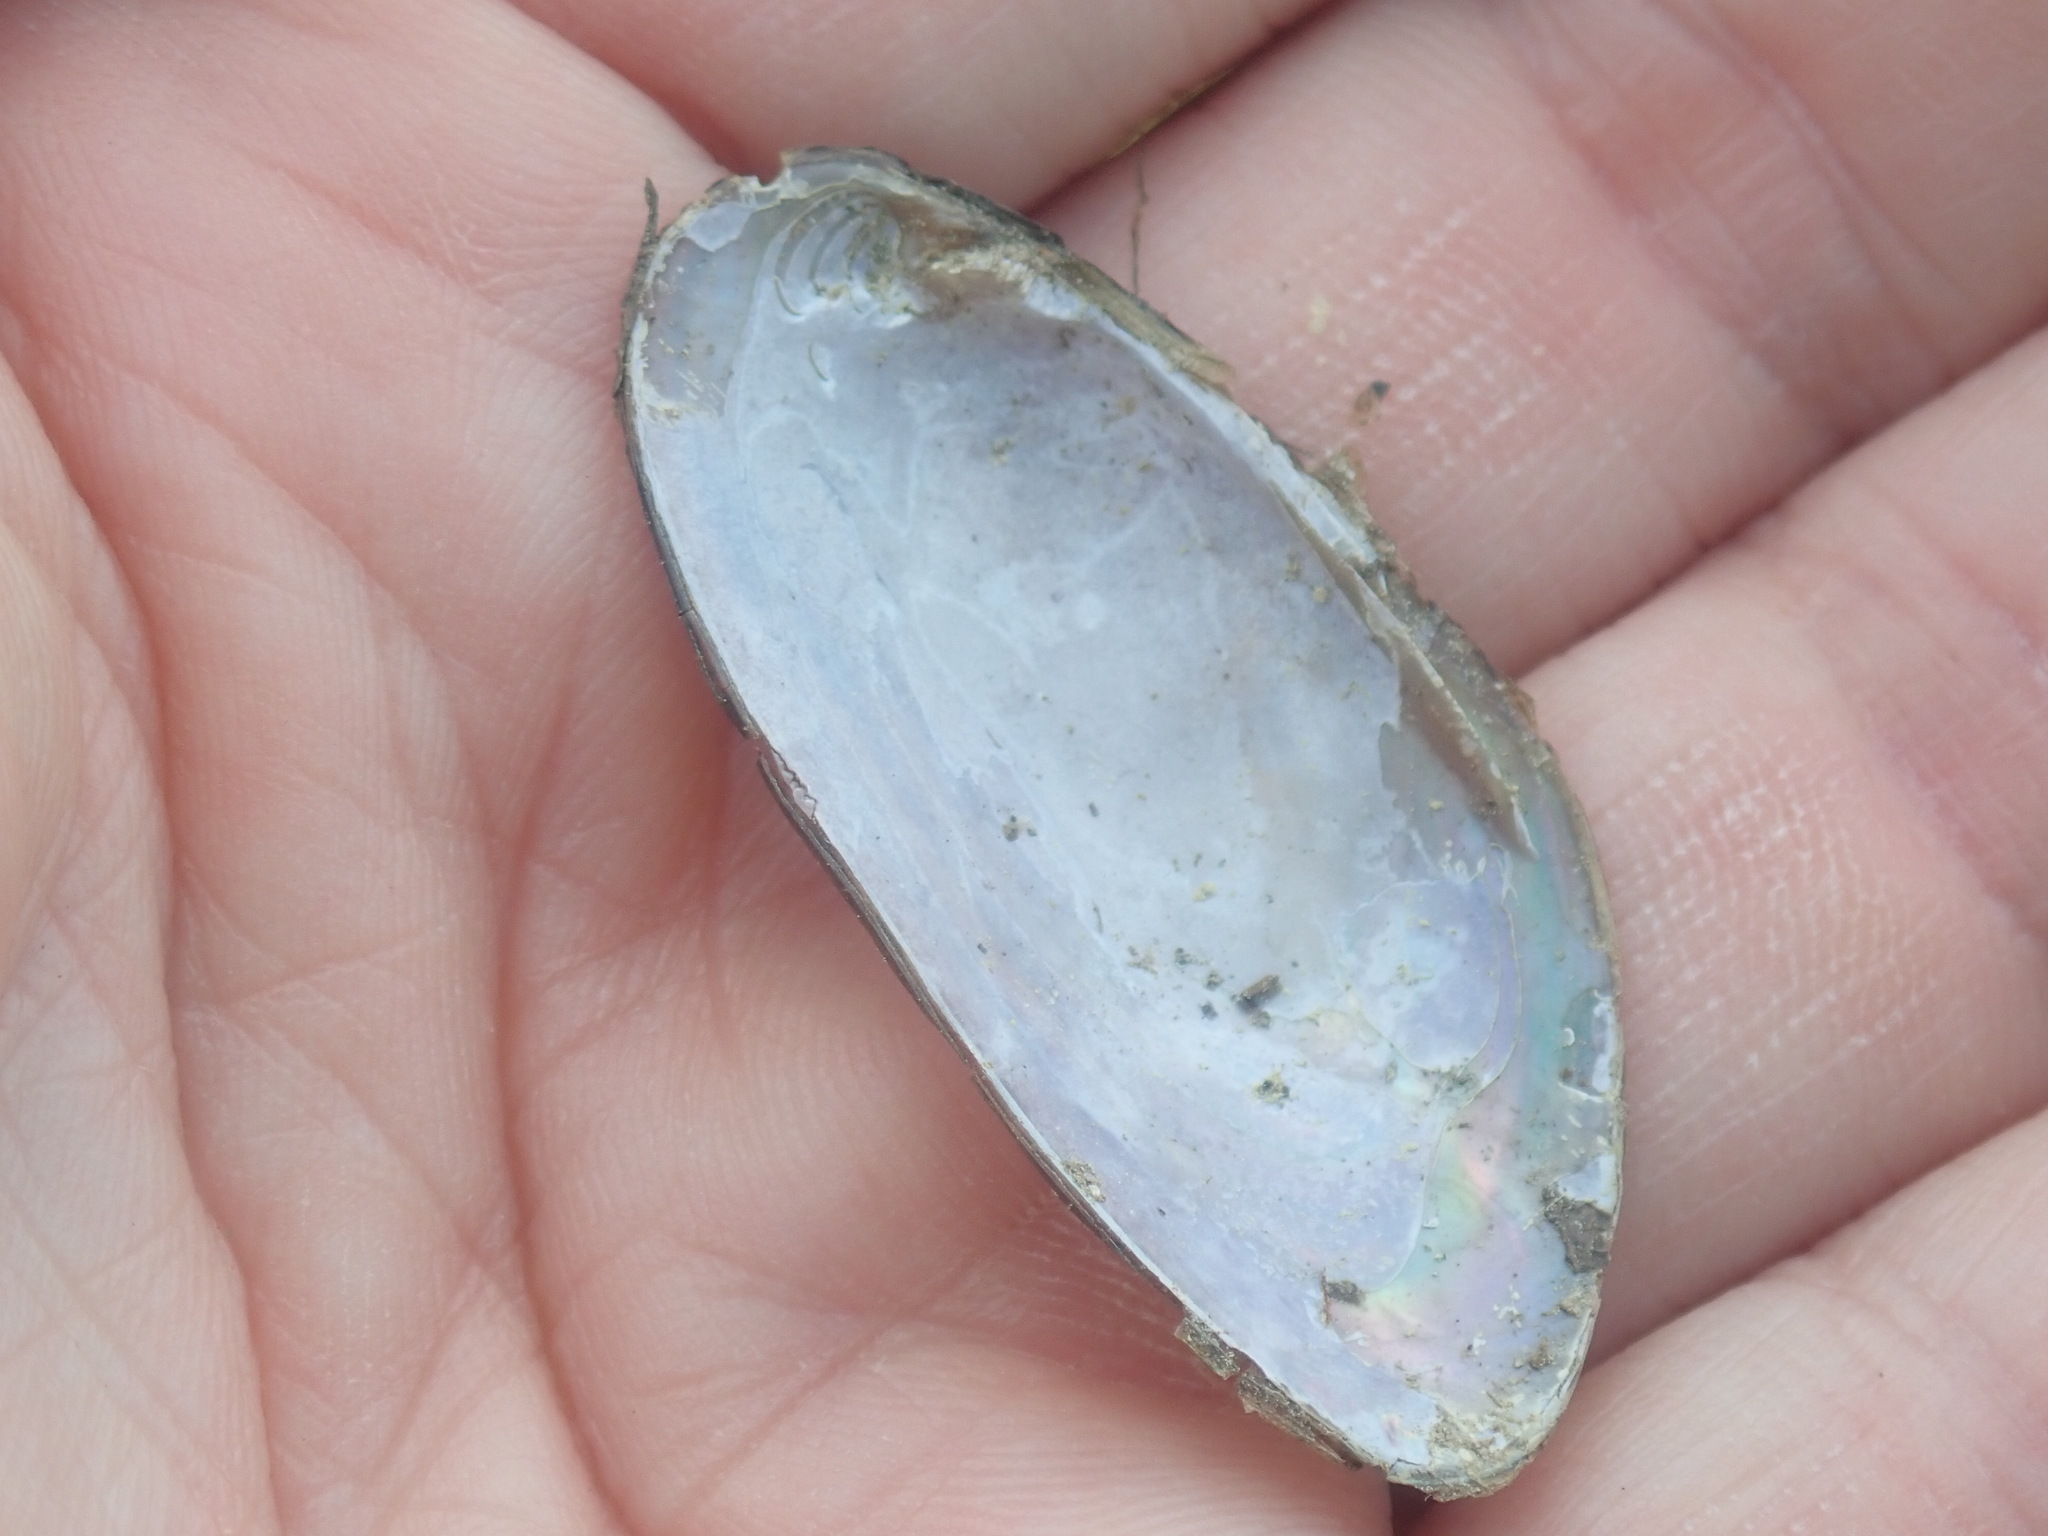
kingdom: Animalia
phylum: Mollusca
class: Bivalvia
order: Unionida
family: Unionidae
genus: Elliptio
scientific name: Elliptio complanata
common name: Eastern elliptio
